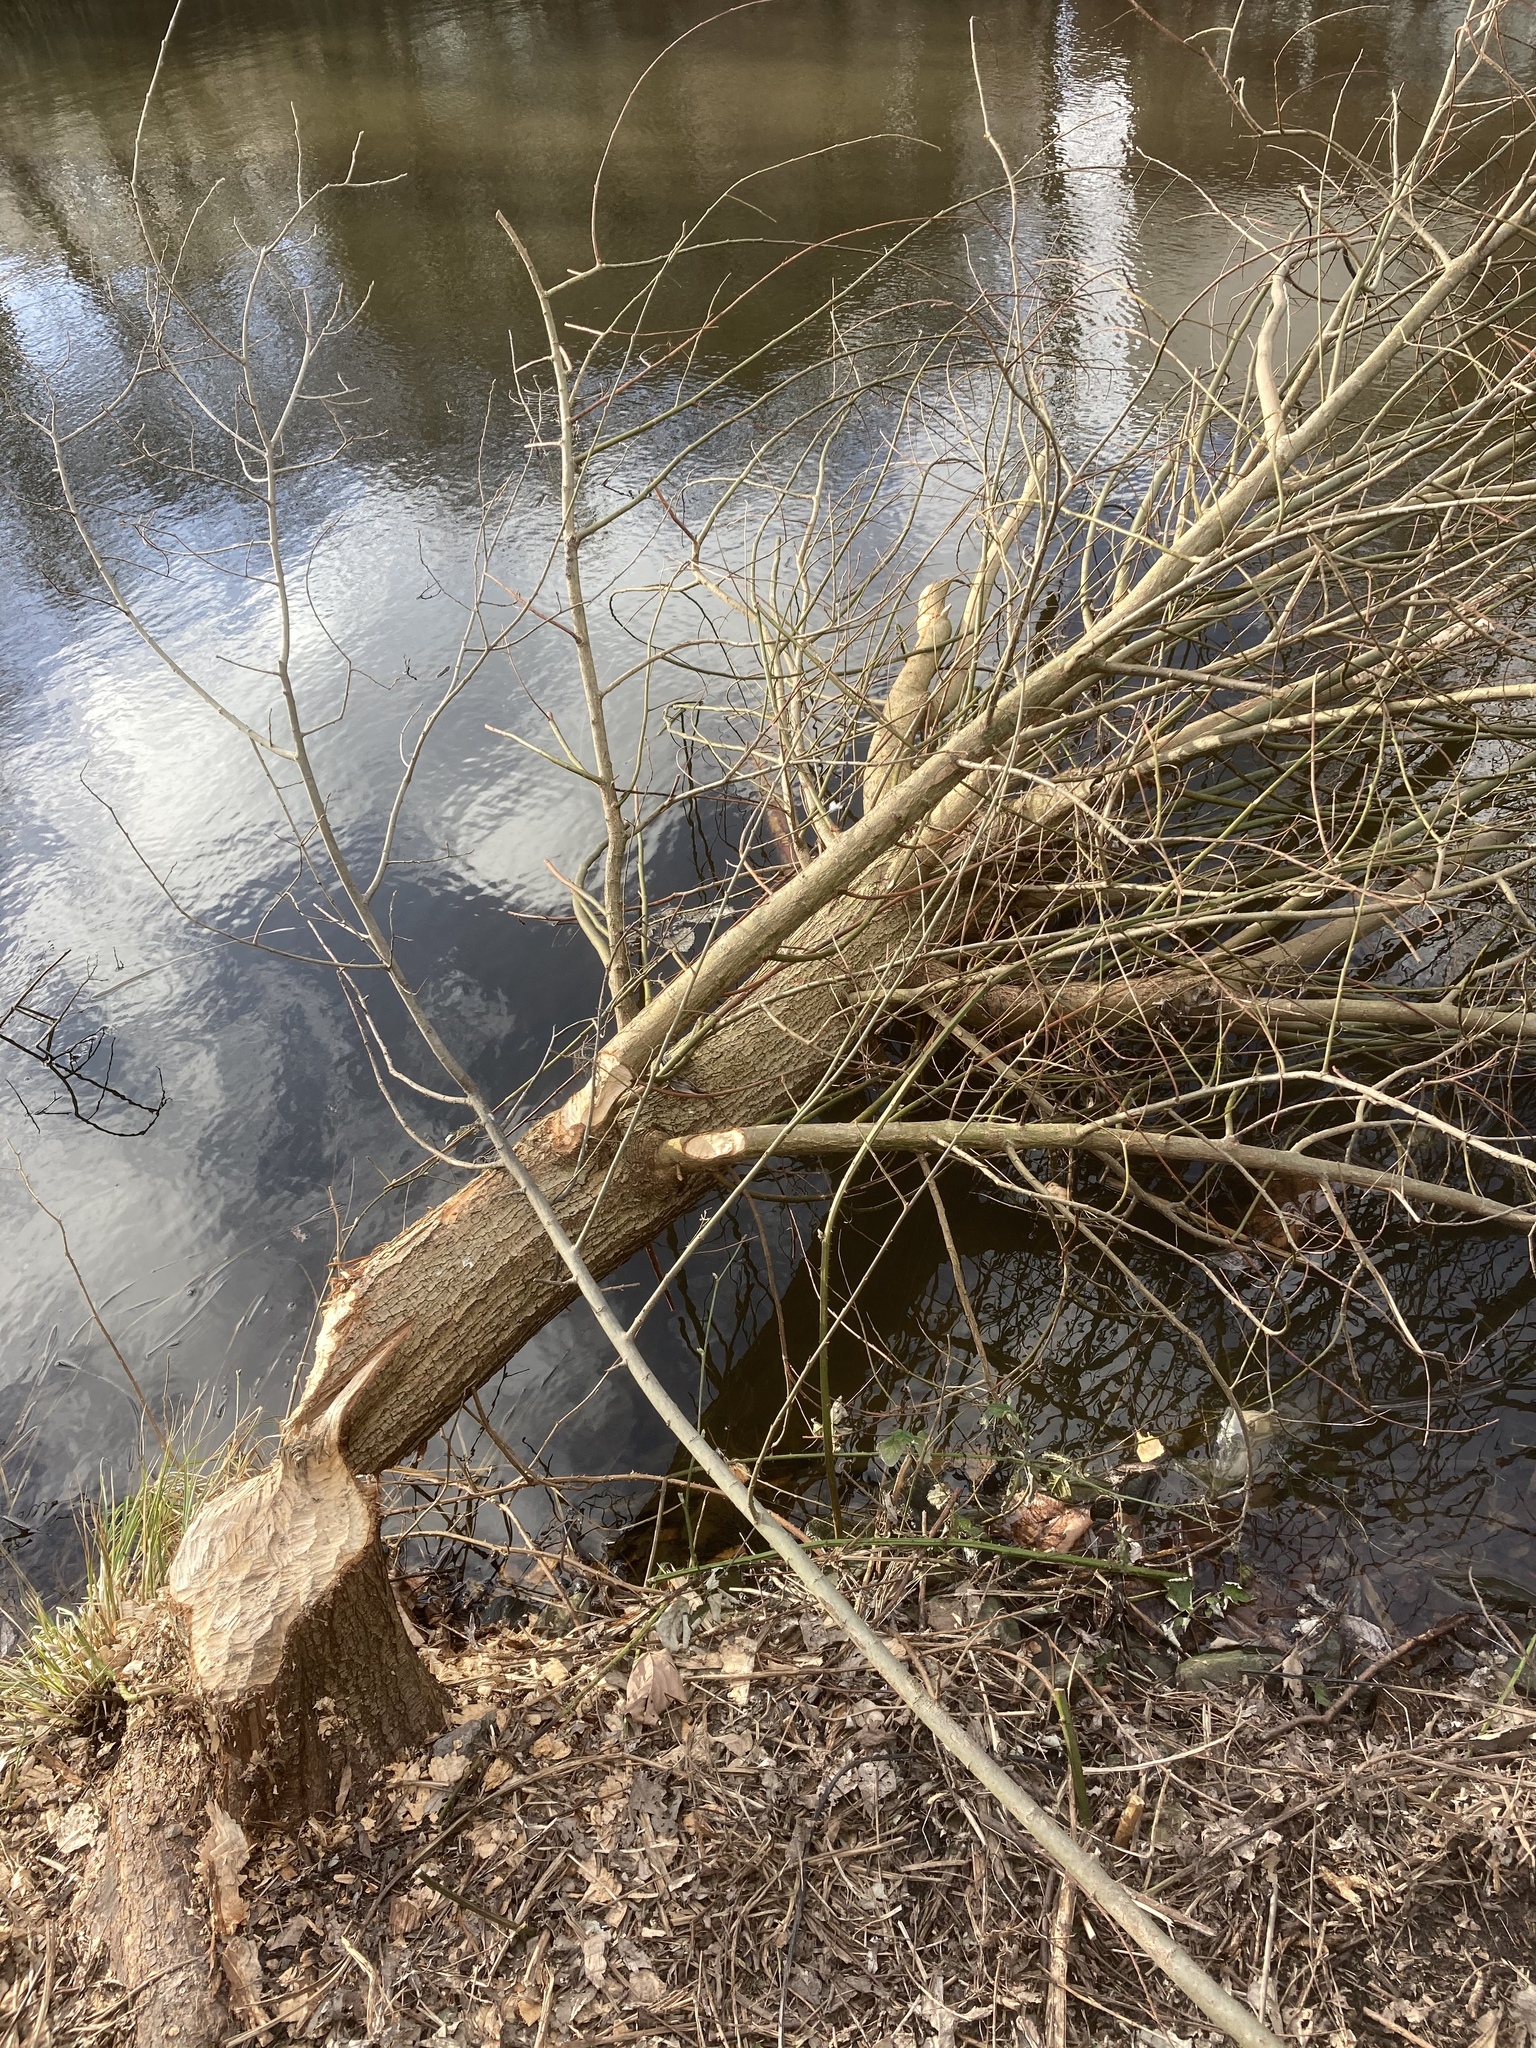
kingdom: Animalia
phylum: Chordata
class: Mammalia
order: Rodentia
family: Castoridae
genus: Castor
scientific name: Castor fiber
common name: Eurasian beaver
